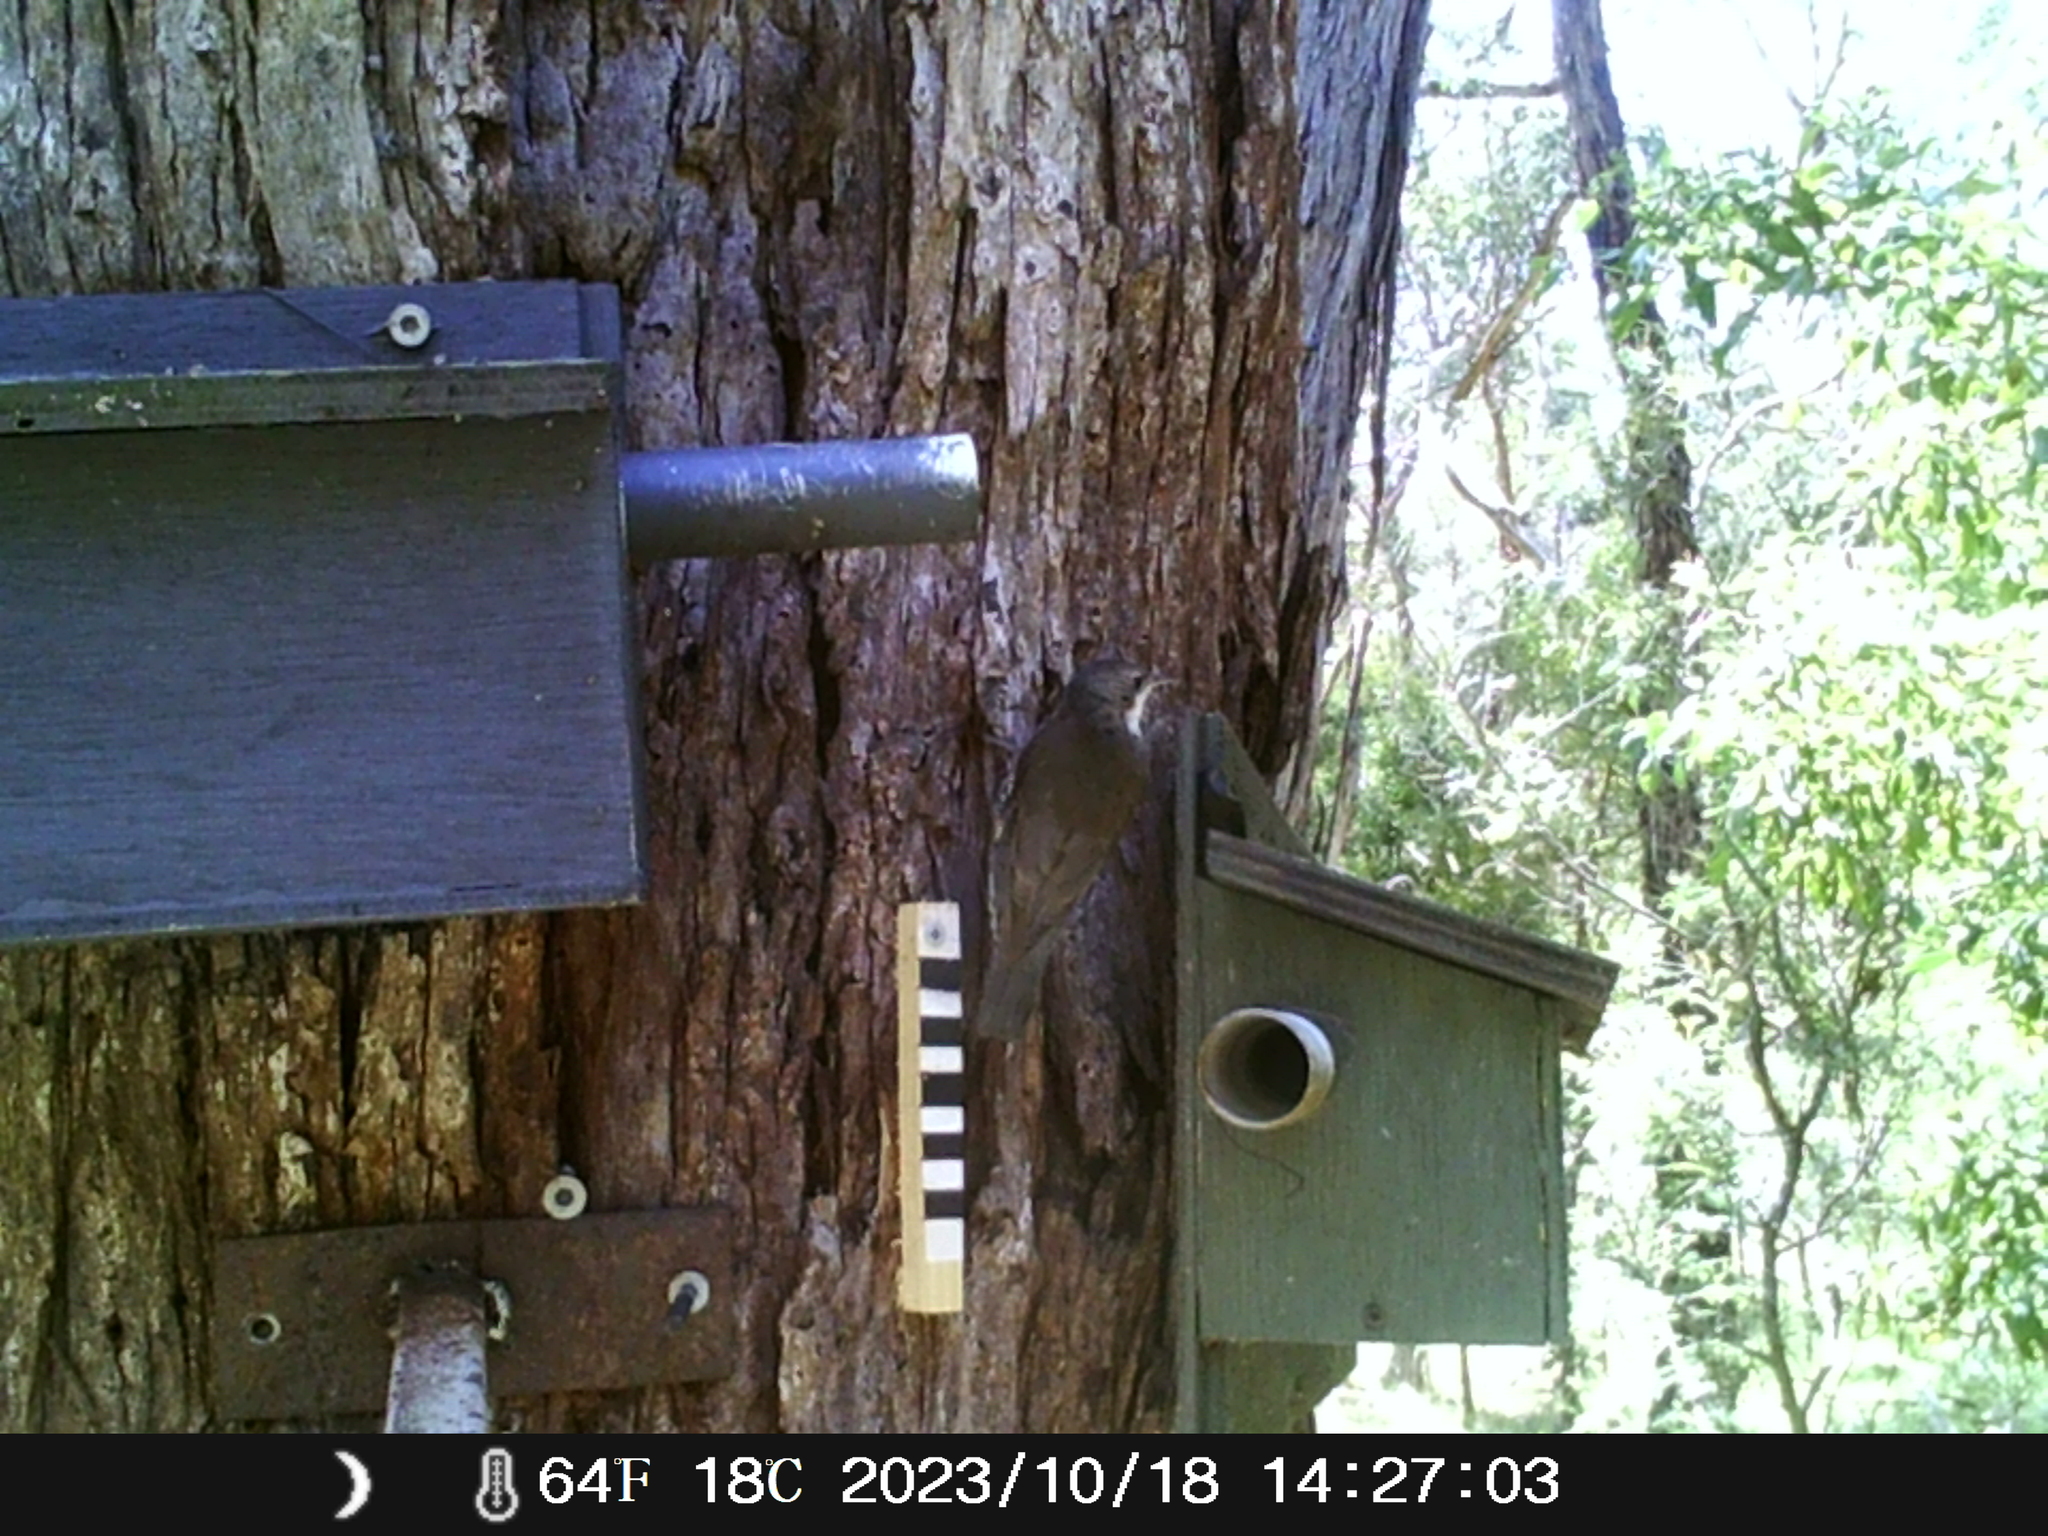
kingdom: Animalia
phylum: Chordata
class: Aves
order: Passeriformes
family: Climacteridae
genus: Cormobates
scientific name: Cormobates leucophaea
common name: White-throated treecreeper
